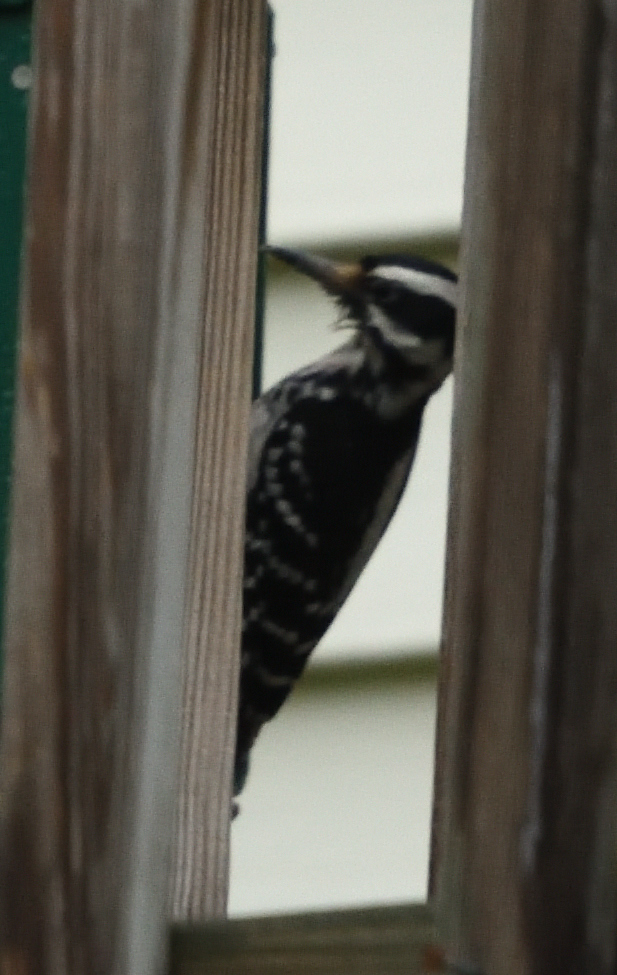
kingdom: Animalia
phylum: Chordata
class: Aves
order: Piciformes
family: Picidae
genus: Leuconotopicus
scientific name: Leuconotopicus villosus
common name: Hairy woodpecker
